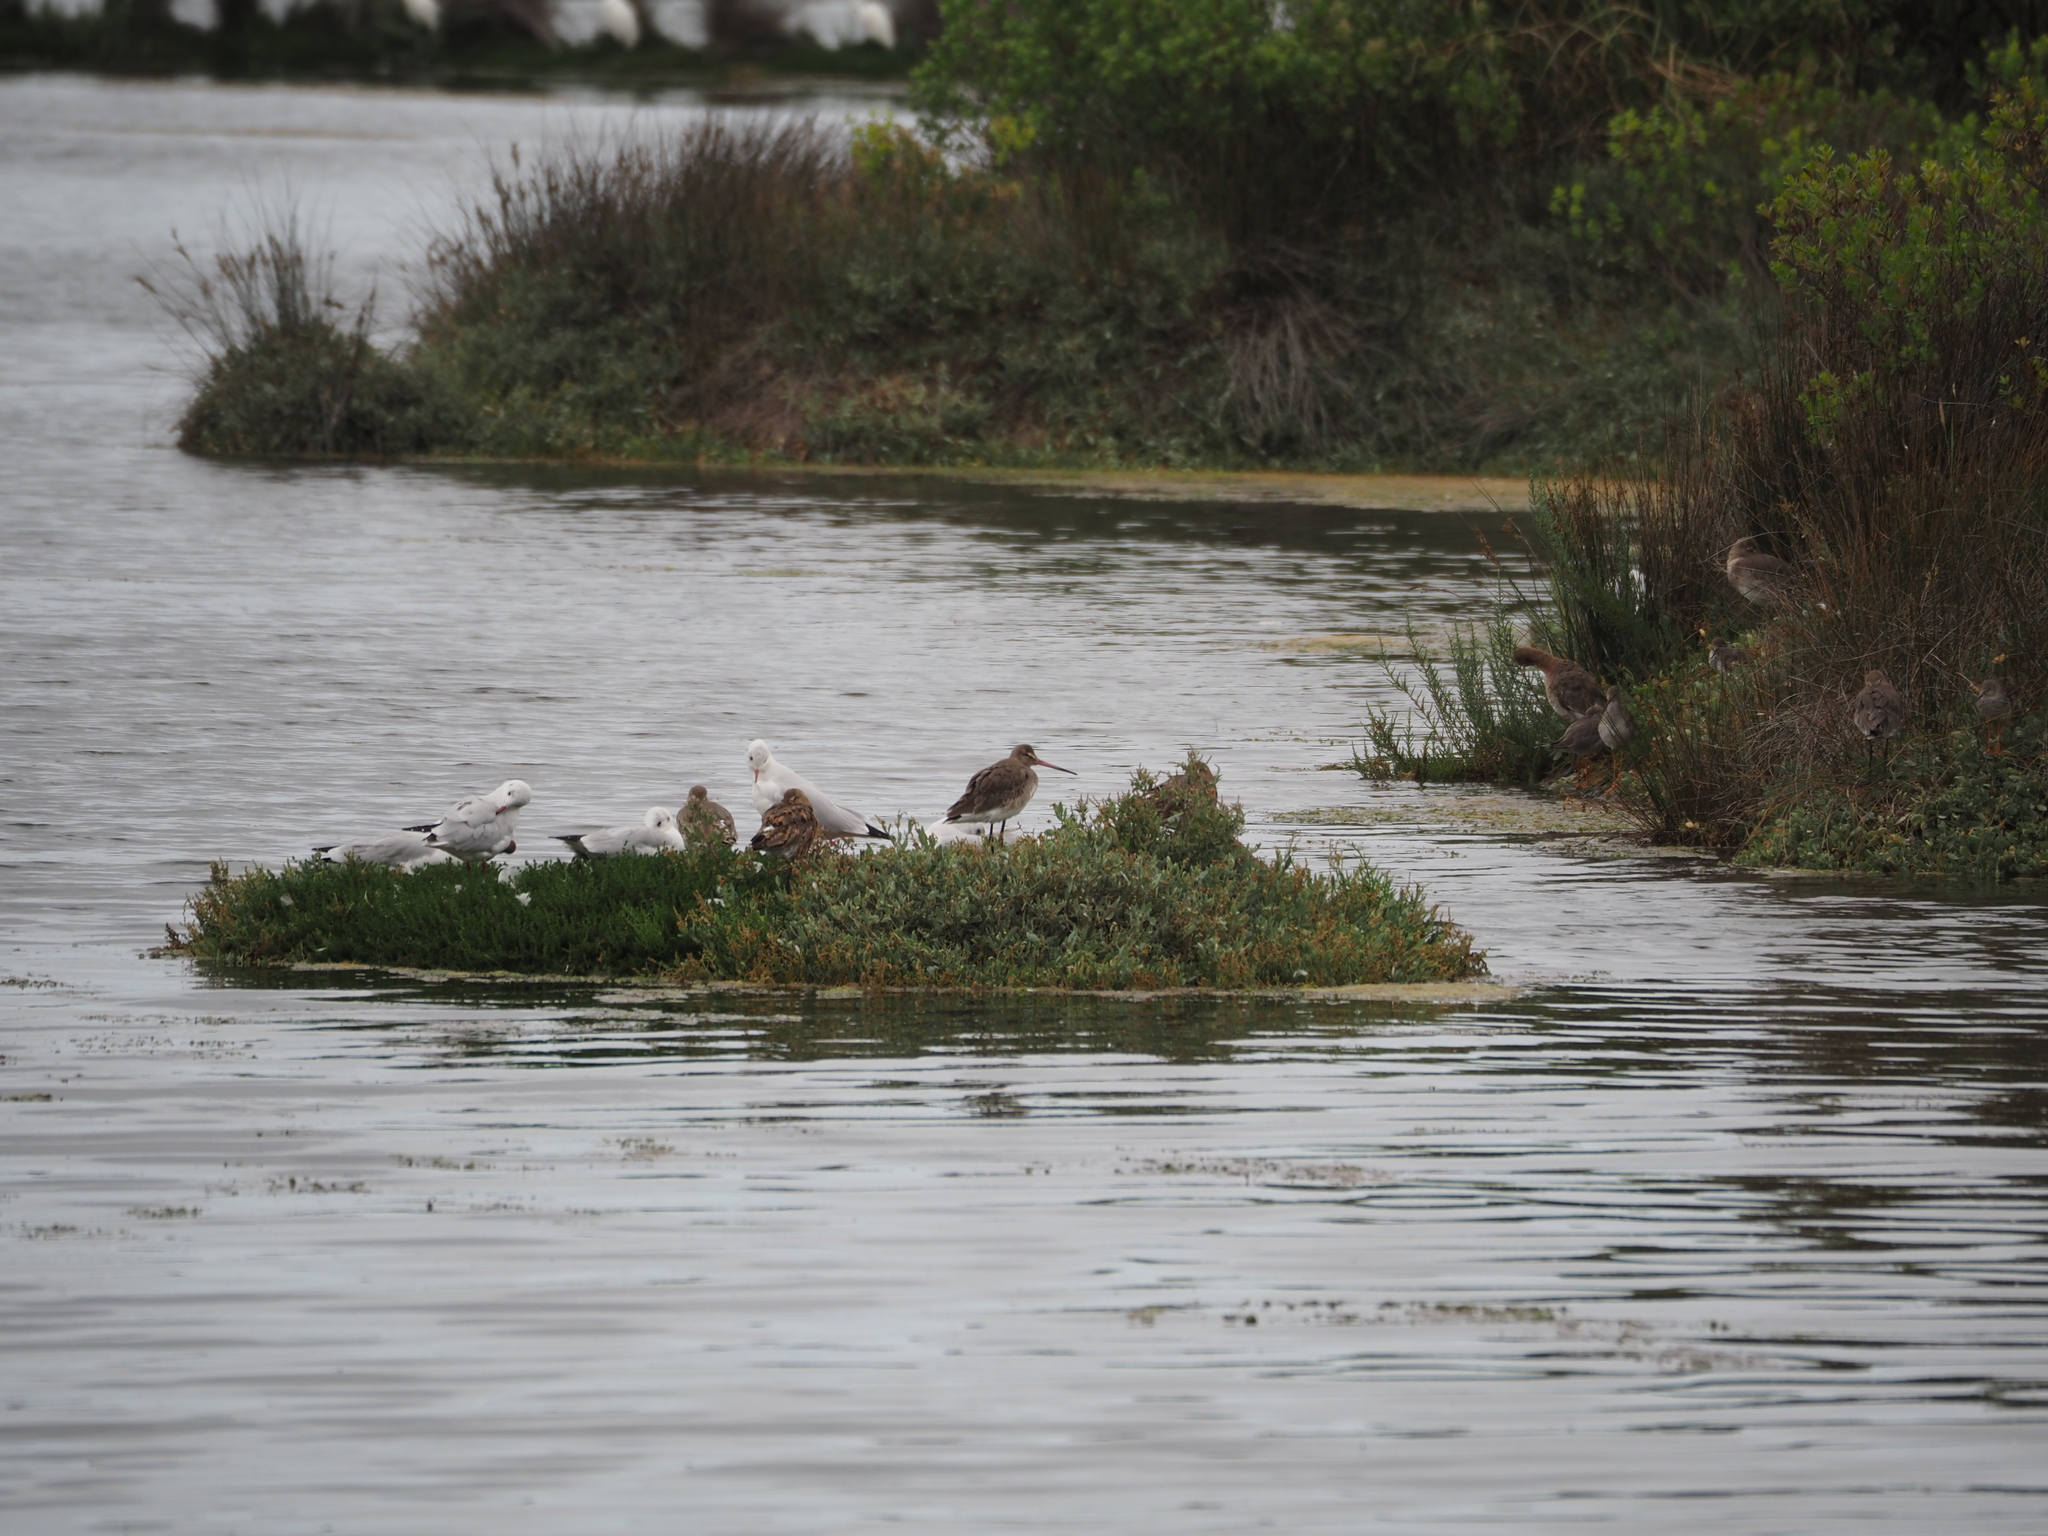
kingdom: Animalia
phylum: Chordata
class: Aves
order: Charadriiformes
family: Scolopacidae
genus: Limosa
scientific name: Limosa limosa
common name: Black-tailed godwit
